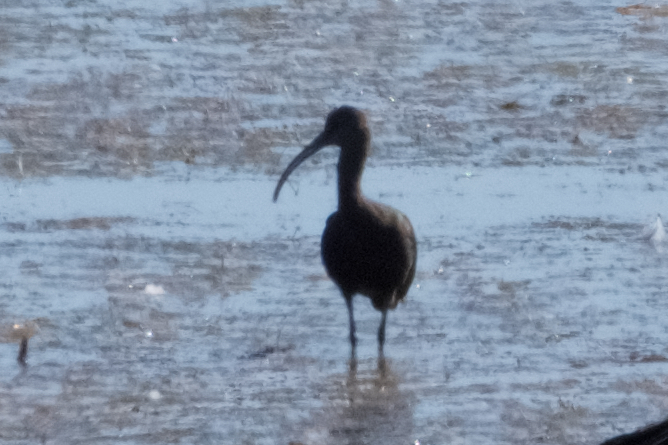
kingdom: Animalia
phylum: Chordata
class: Aves
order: Pelecaniformes
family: Threskiornithidae
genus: Plegadis
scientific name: Plegadis chihi
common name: White-faced ibis
